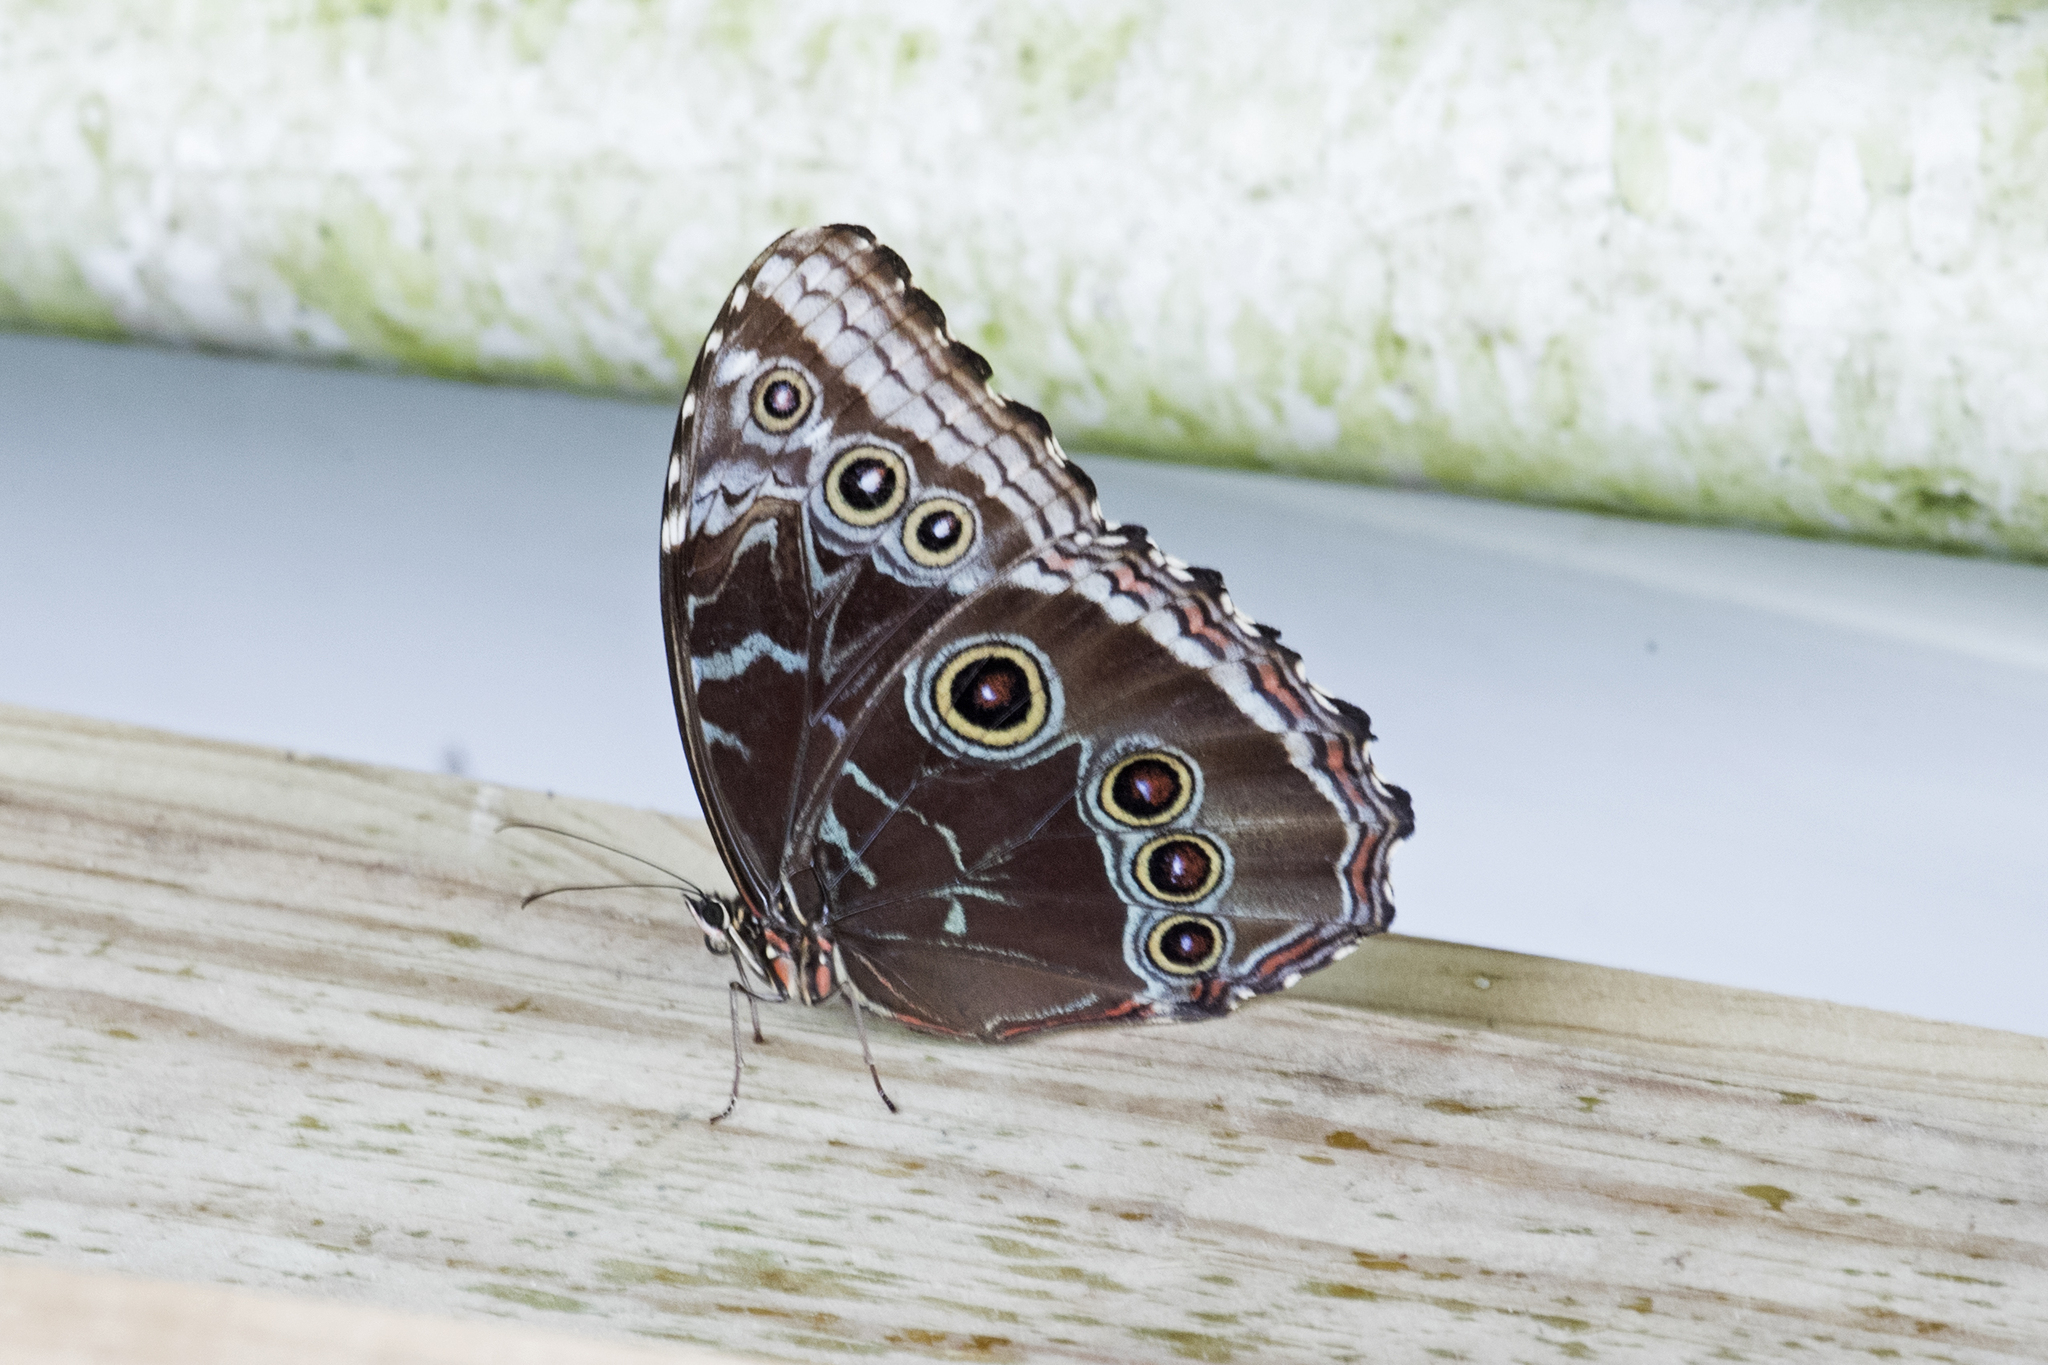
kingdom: Animalia
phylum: Arthropoda
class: Insecta
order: Lepidoptera
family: Nymphalidae
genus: Morpho
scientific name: Morpho helenor
